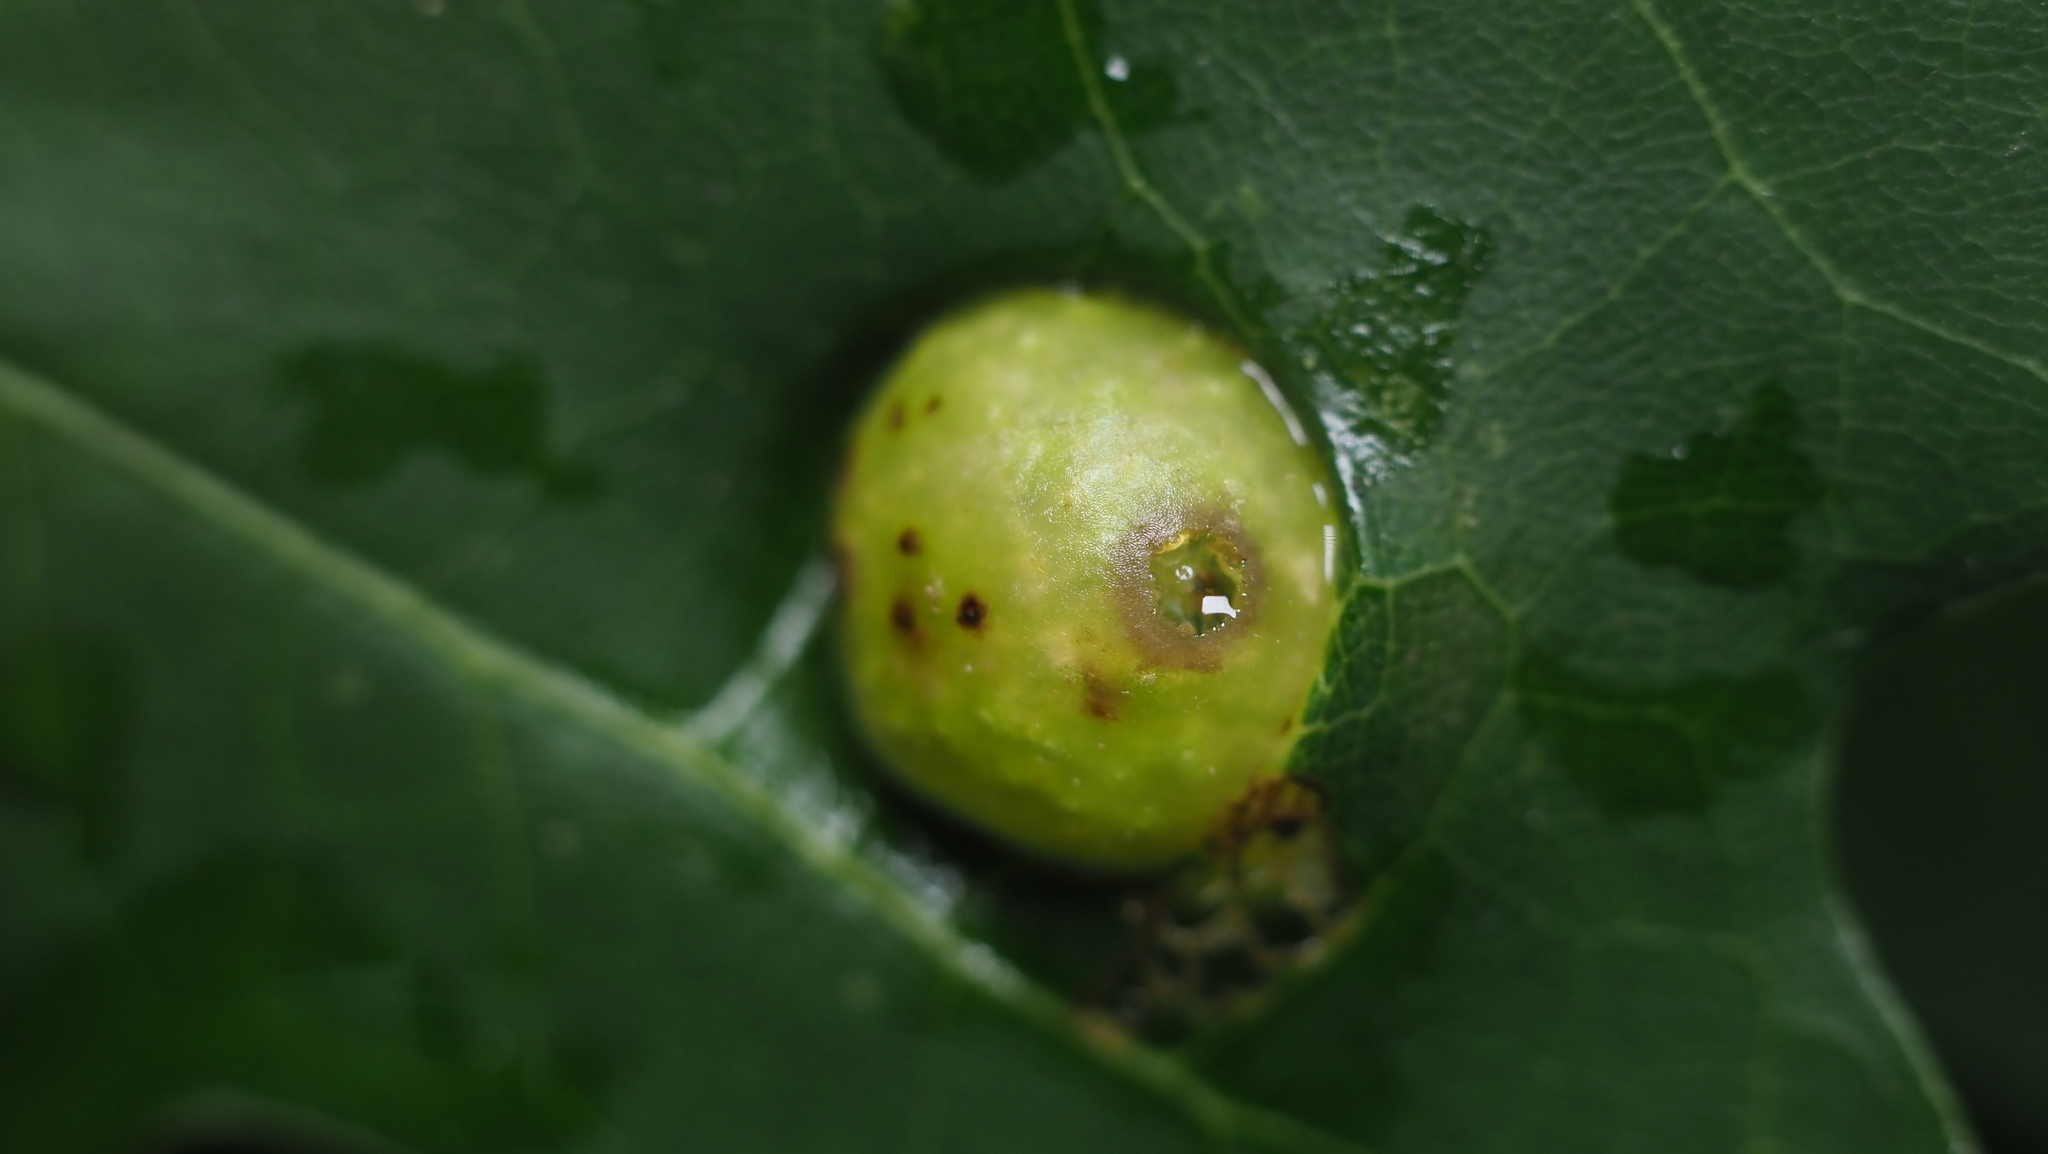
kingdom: Animalia
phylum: Arthropoda
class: Insecta
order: Hymenoptera
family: Cynipidae
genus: Amphibolips
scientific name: Amphibolips
